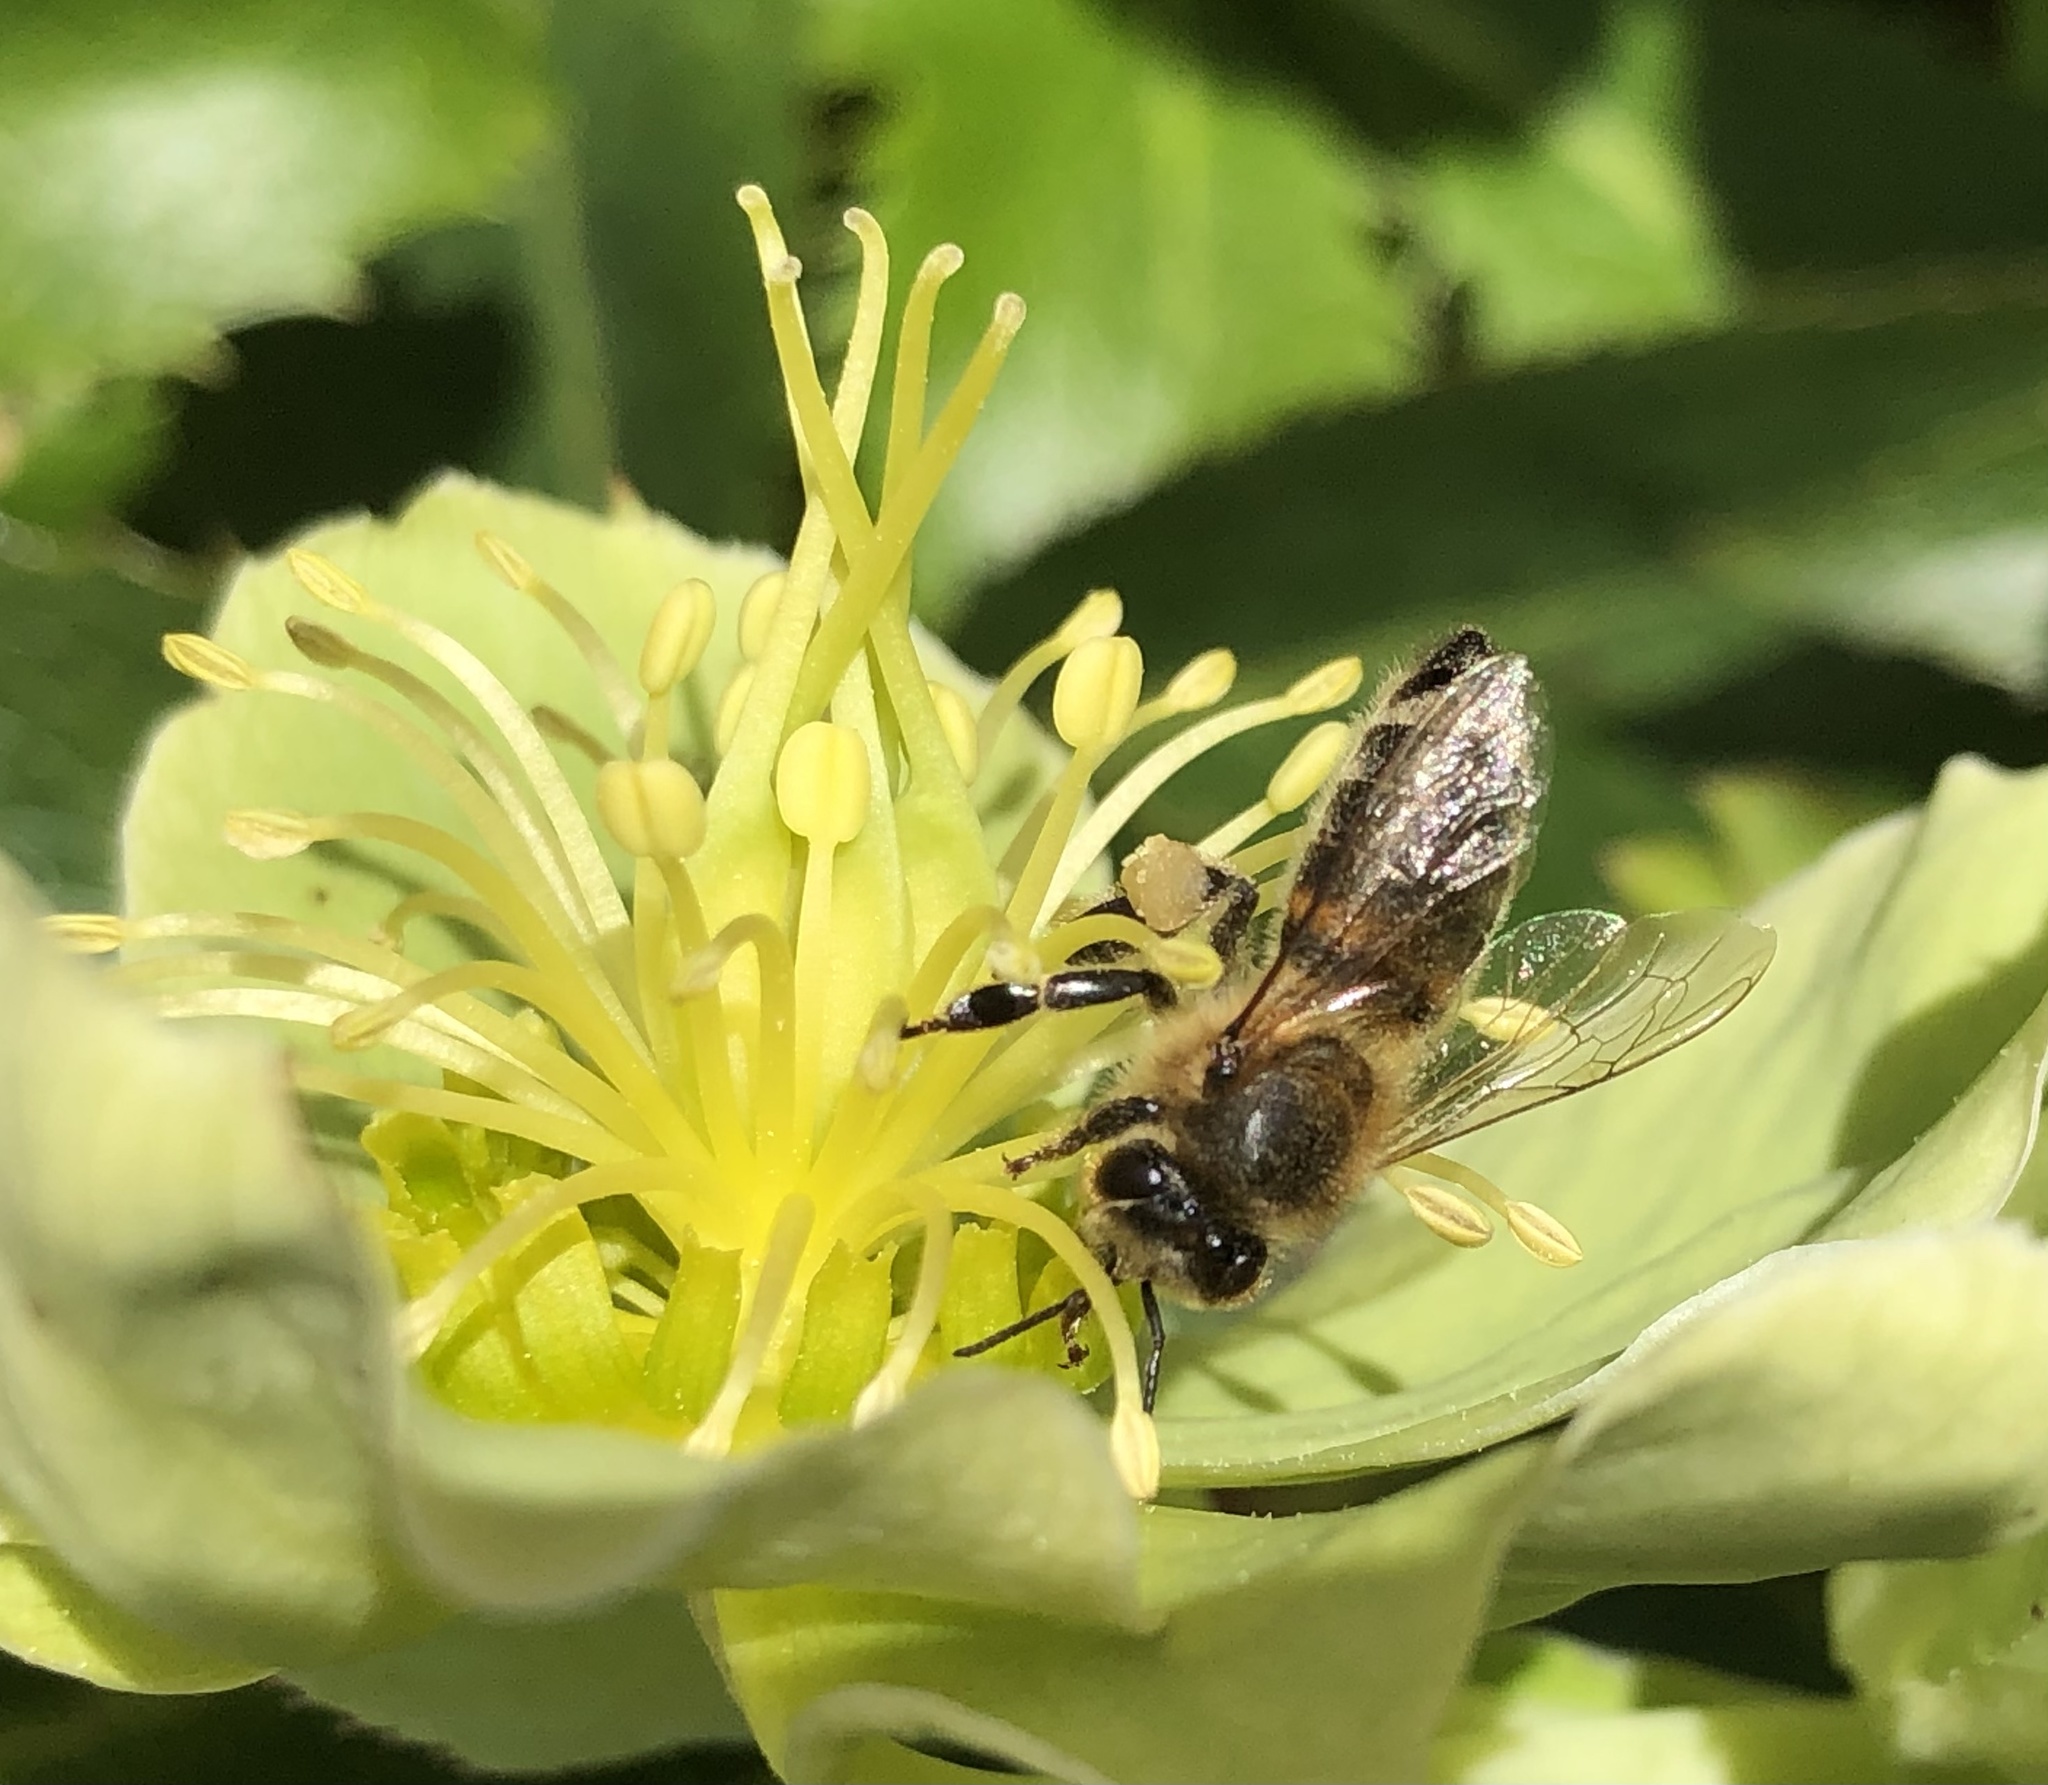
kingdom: Animalia
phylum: Arthropoda
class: Insecta
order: Hymenoptera
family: Apidae
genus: Apis
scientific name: Apis mellifera
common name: Honey bee
